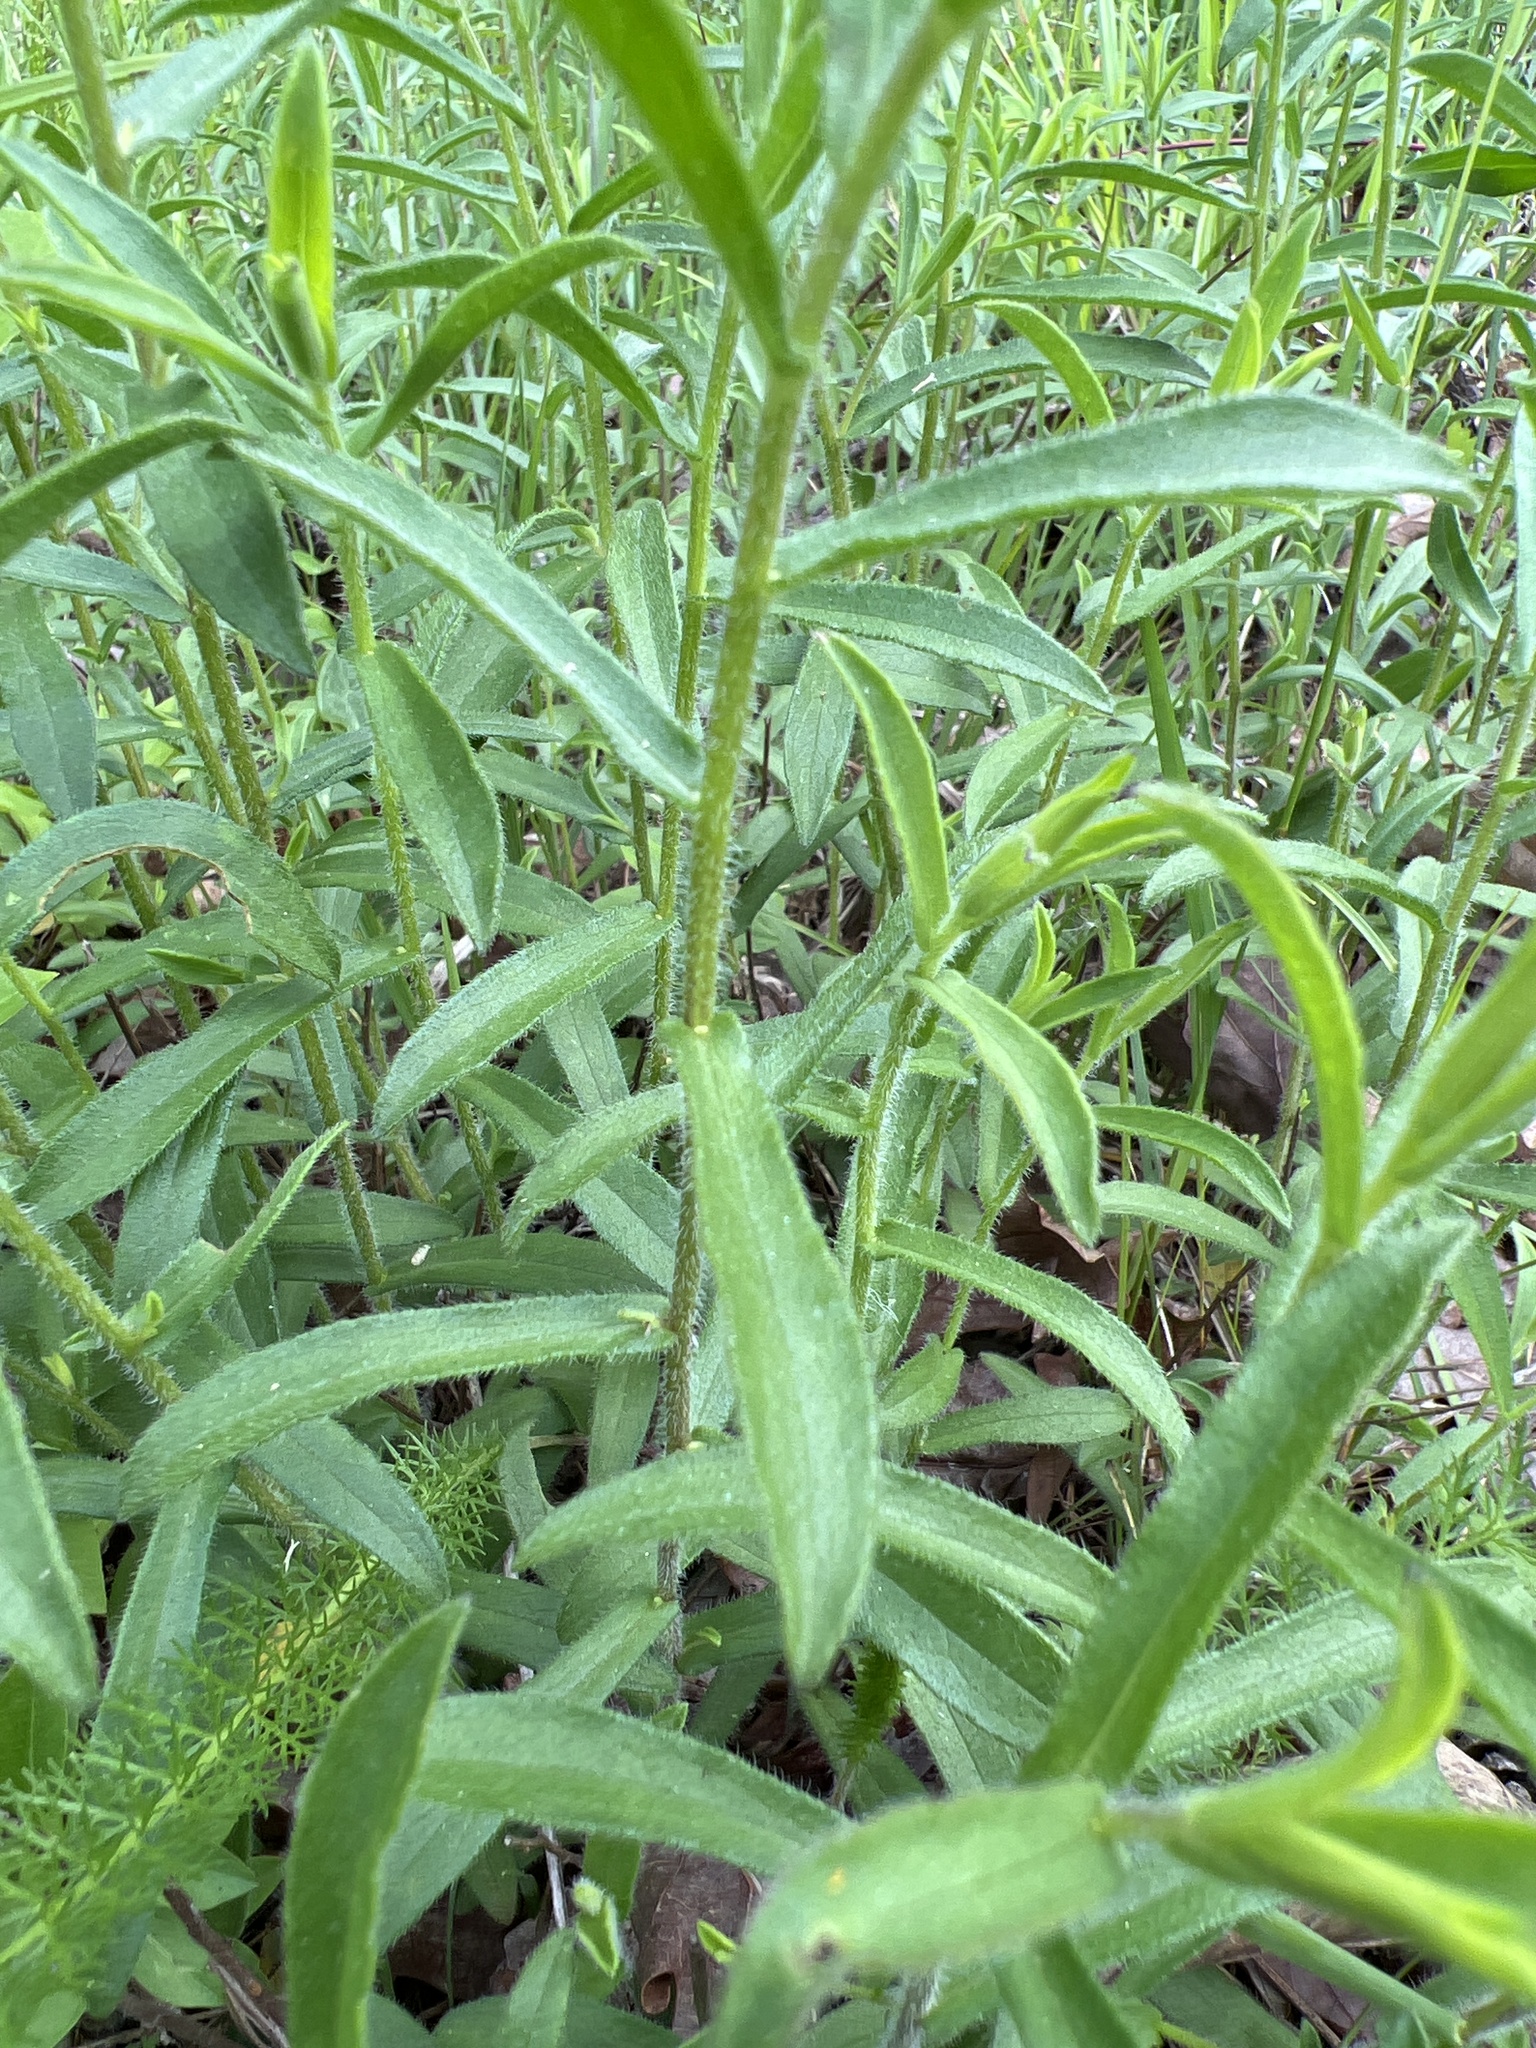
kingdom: Plantae
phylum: Tracheophyta
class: Magnoliopsida
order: Asterales
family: Asteraceae
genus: Symphyotrichum
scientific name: Symphyotrichum grandiflorum
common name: Big-head aster
